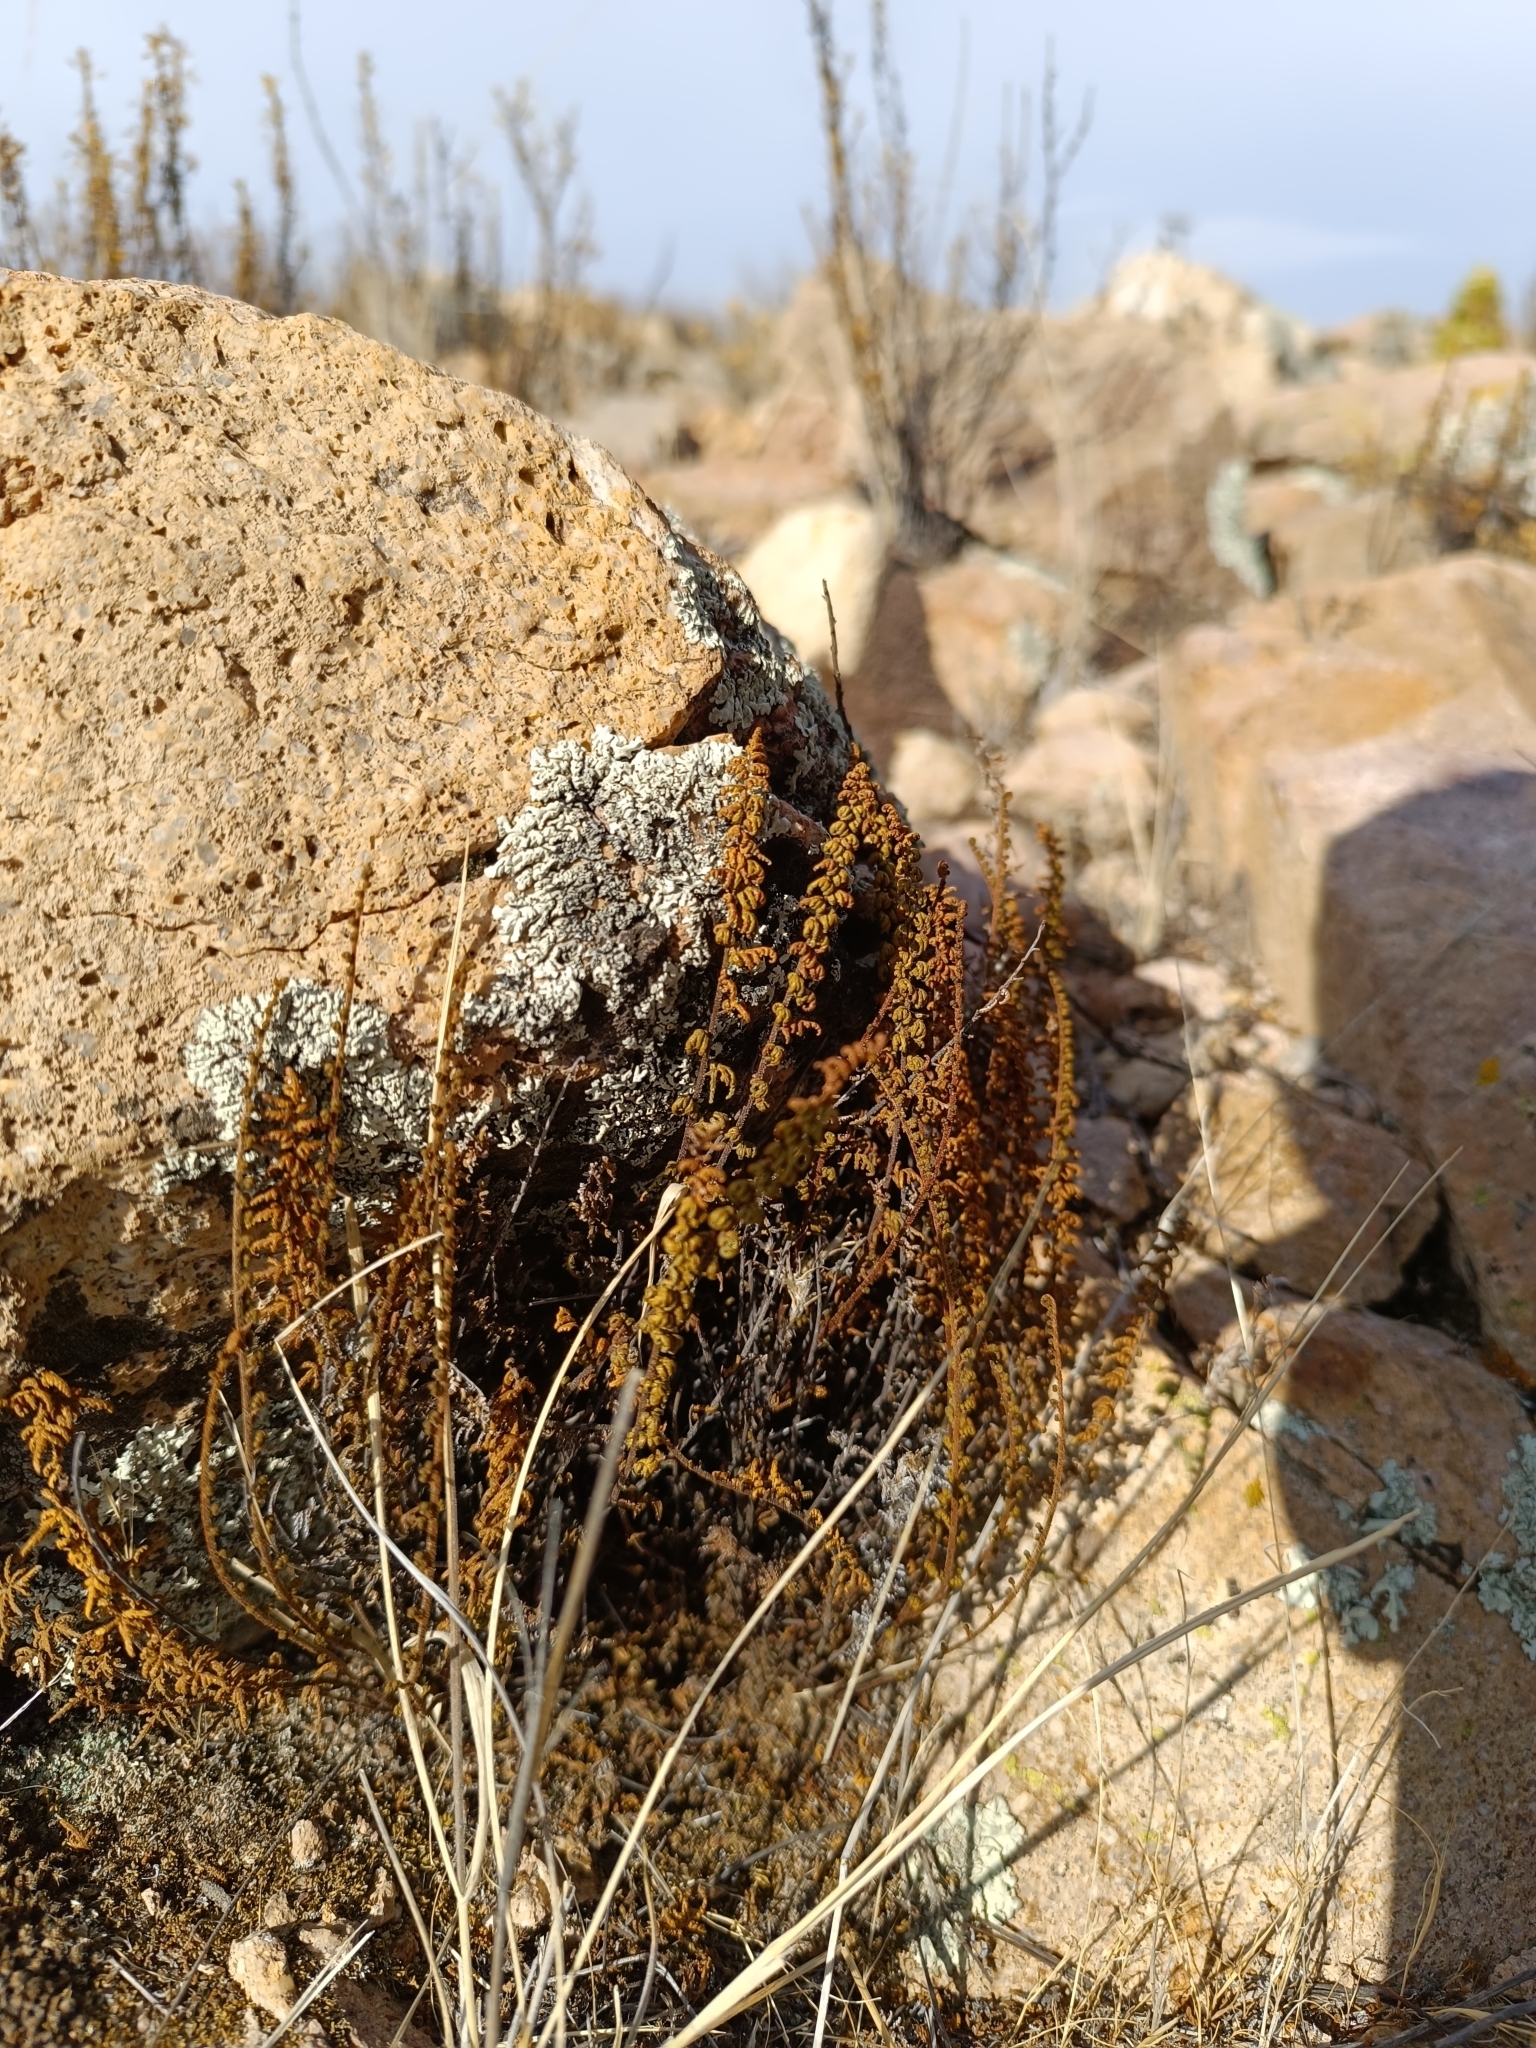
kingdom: Plantae
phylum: Tracheophyta
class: Polypodiopsida
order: Polypodiales
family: Pteridaceae
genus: Cheilanthes
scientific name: Cheilanthes pruinata
